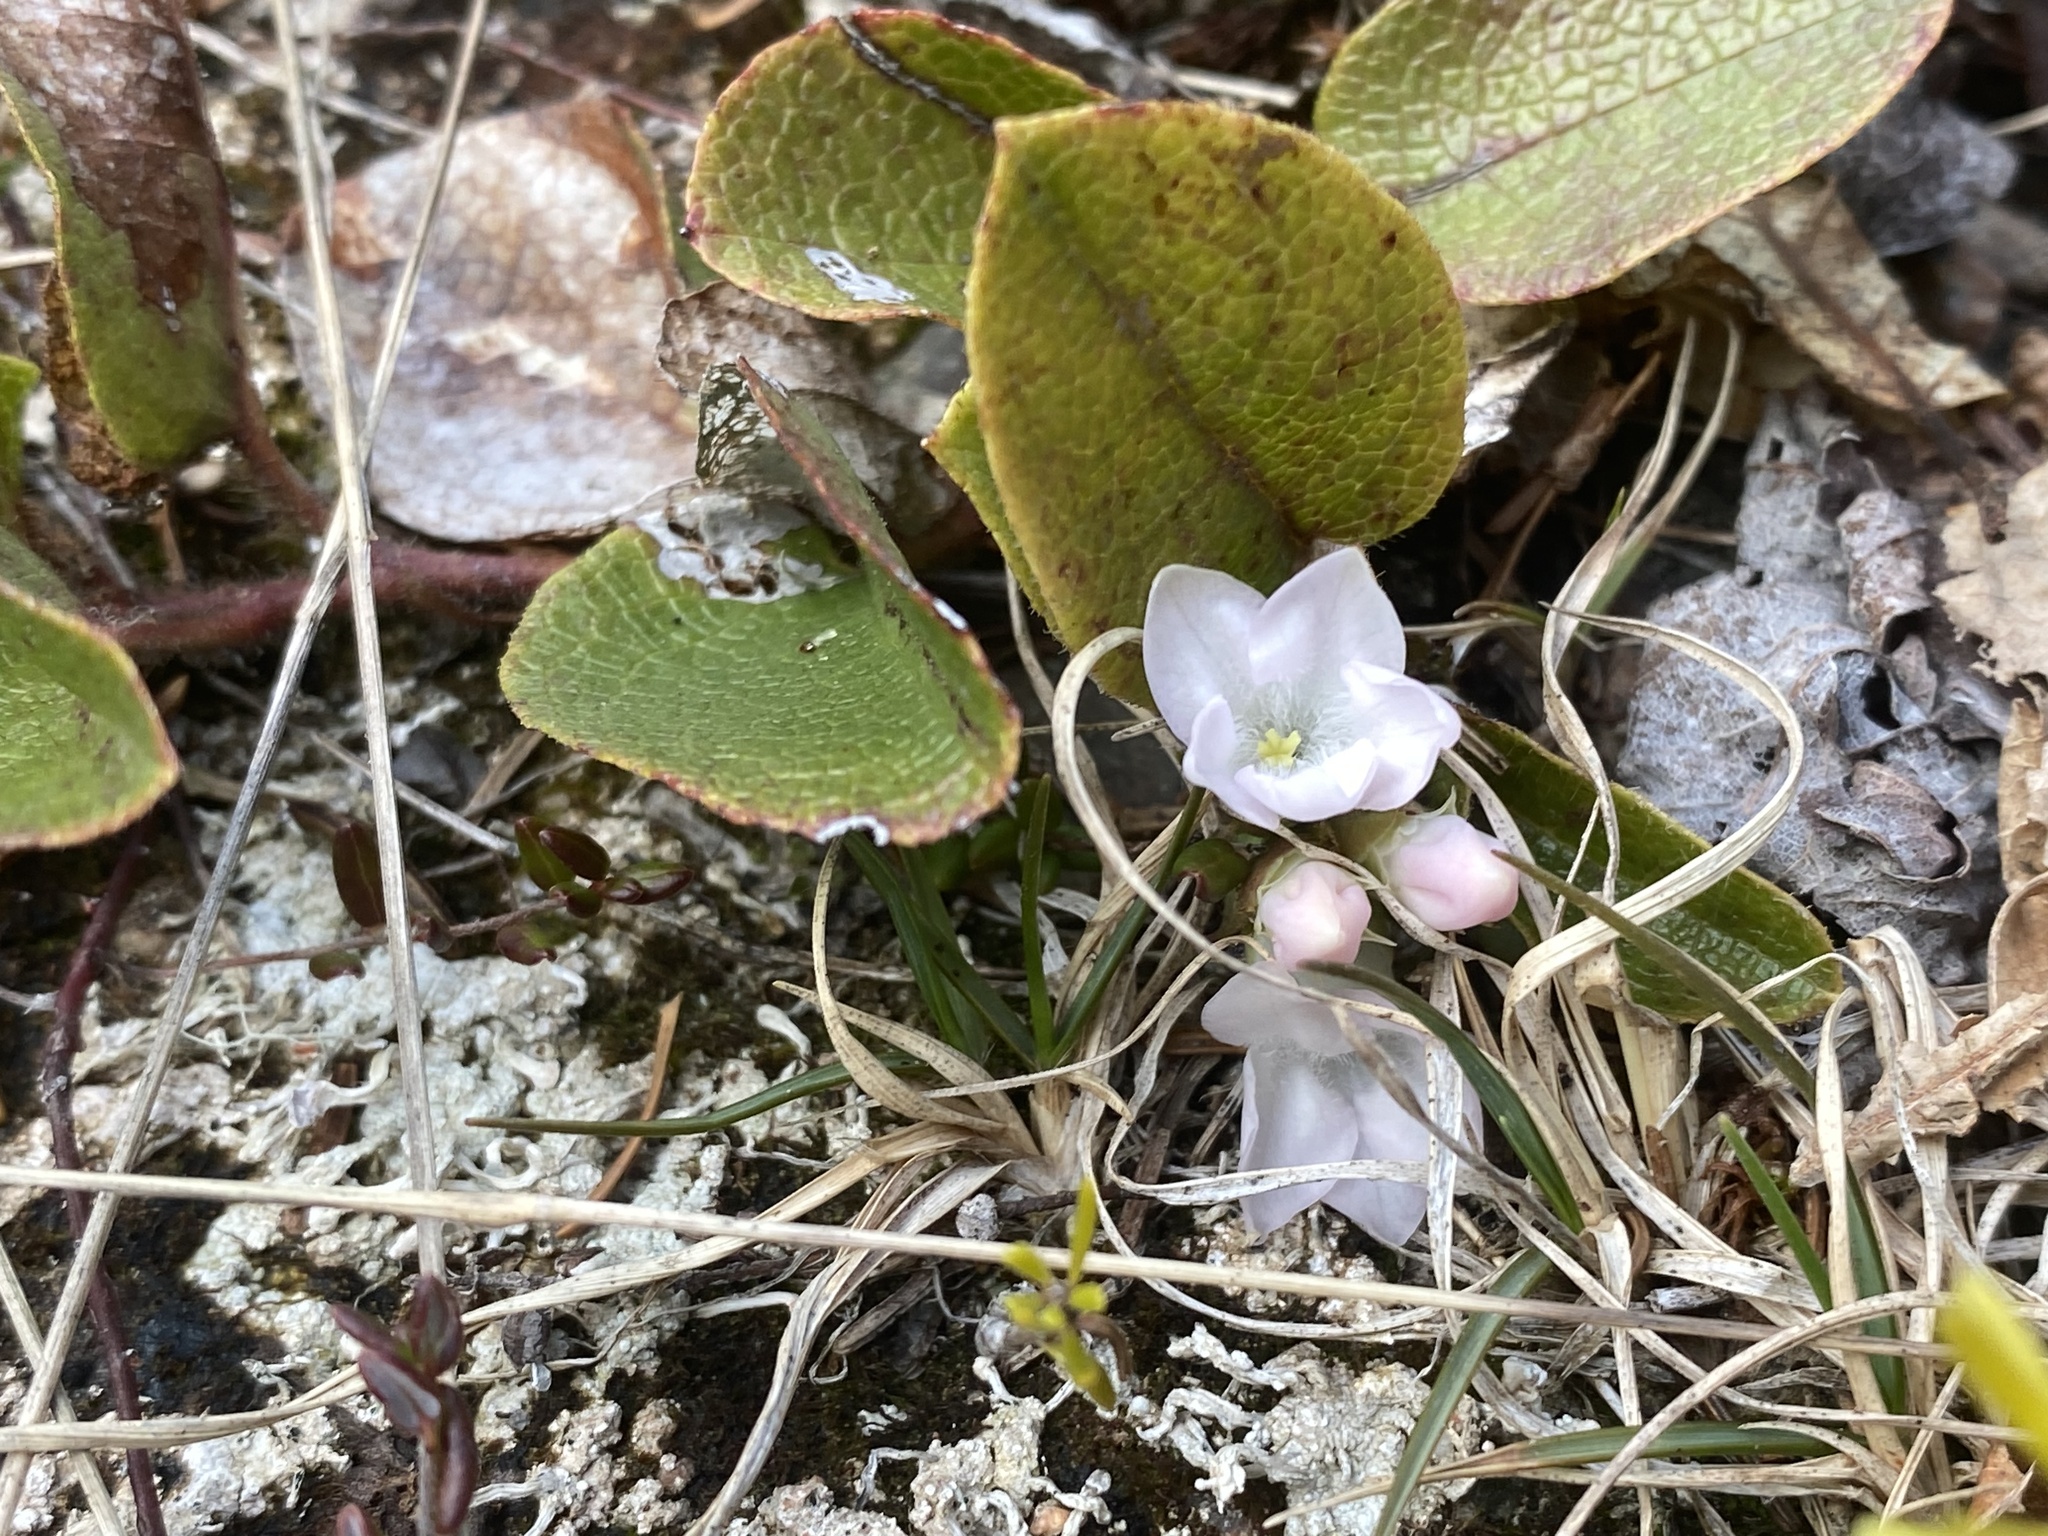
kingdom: Plantae
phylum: Tracheophyta
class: Magnoliopsida
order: Ericales
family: Ericaceae
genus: Epigaea
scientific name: Epigaea repens
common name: Gravelroot
